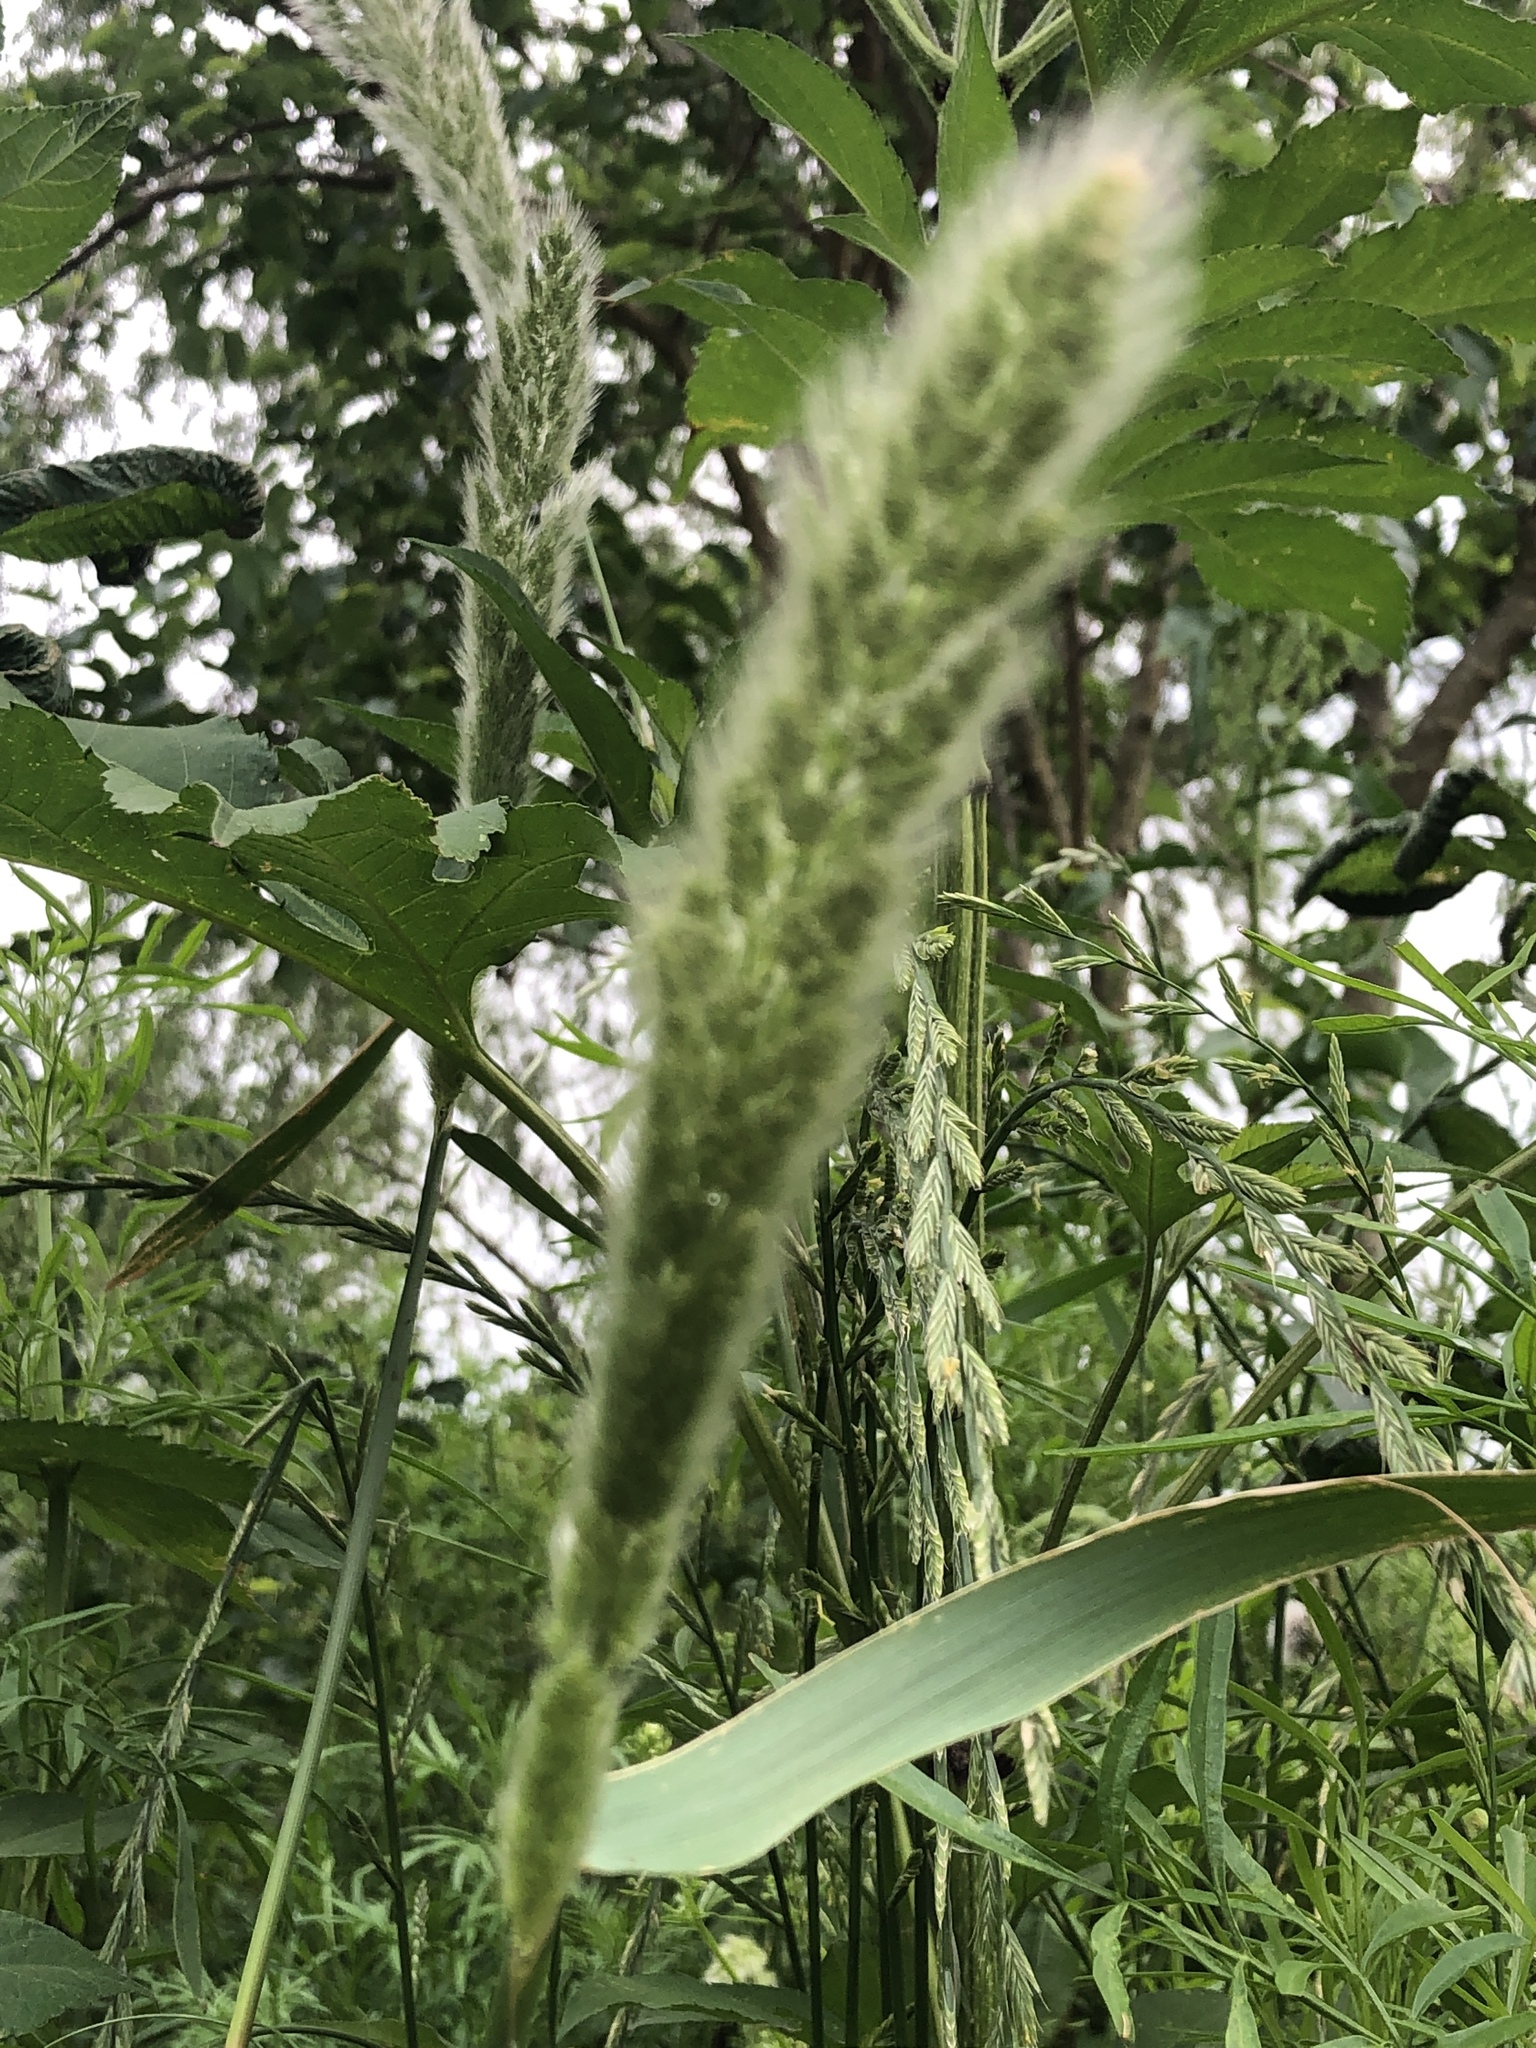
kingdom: Plantae
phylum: Tracheophyta
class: Liliopsida
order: Poales
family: Poaceae
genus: Polypogon
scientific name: Polypogon monspeliensis
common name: Annual rabbitsfoot grass
